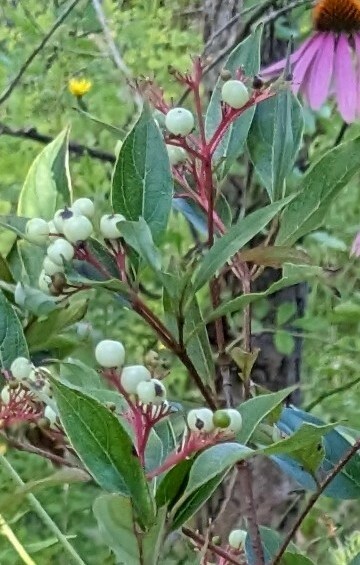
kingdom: Plantae
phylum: Tracheophyta
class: Magnoliopsida
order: Cornales
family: Cornaceae
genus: Cornus
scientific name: Cornus racemosa
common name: Panicled dogwood
